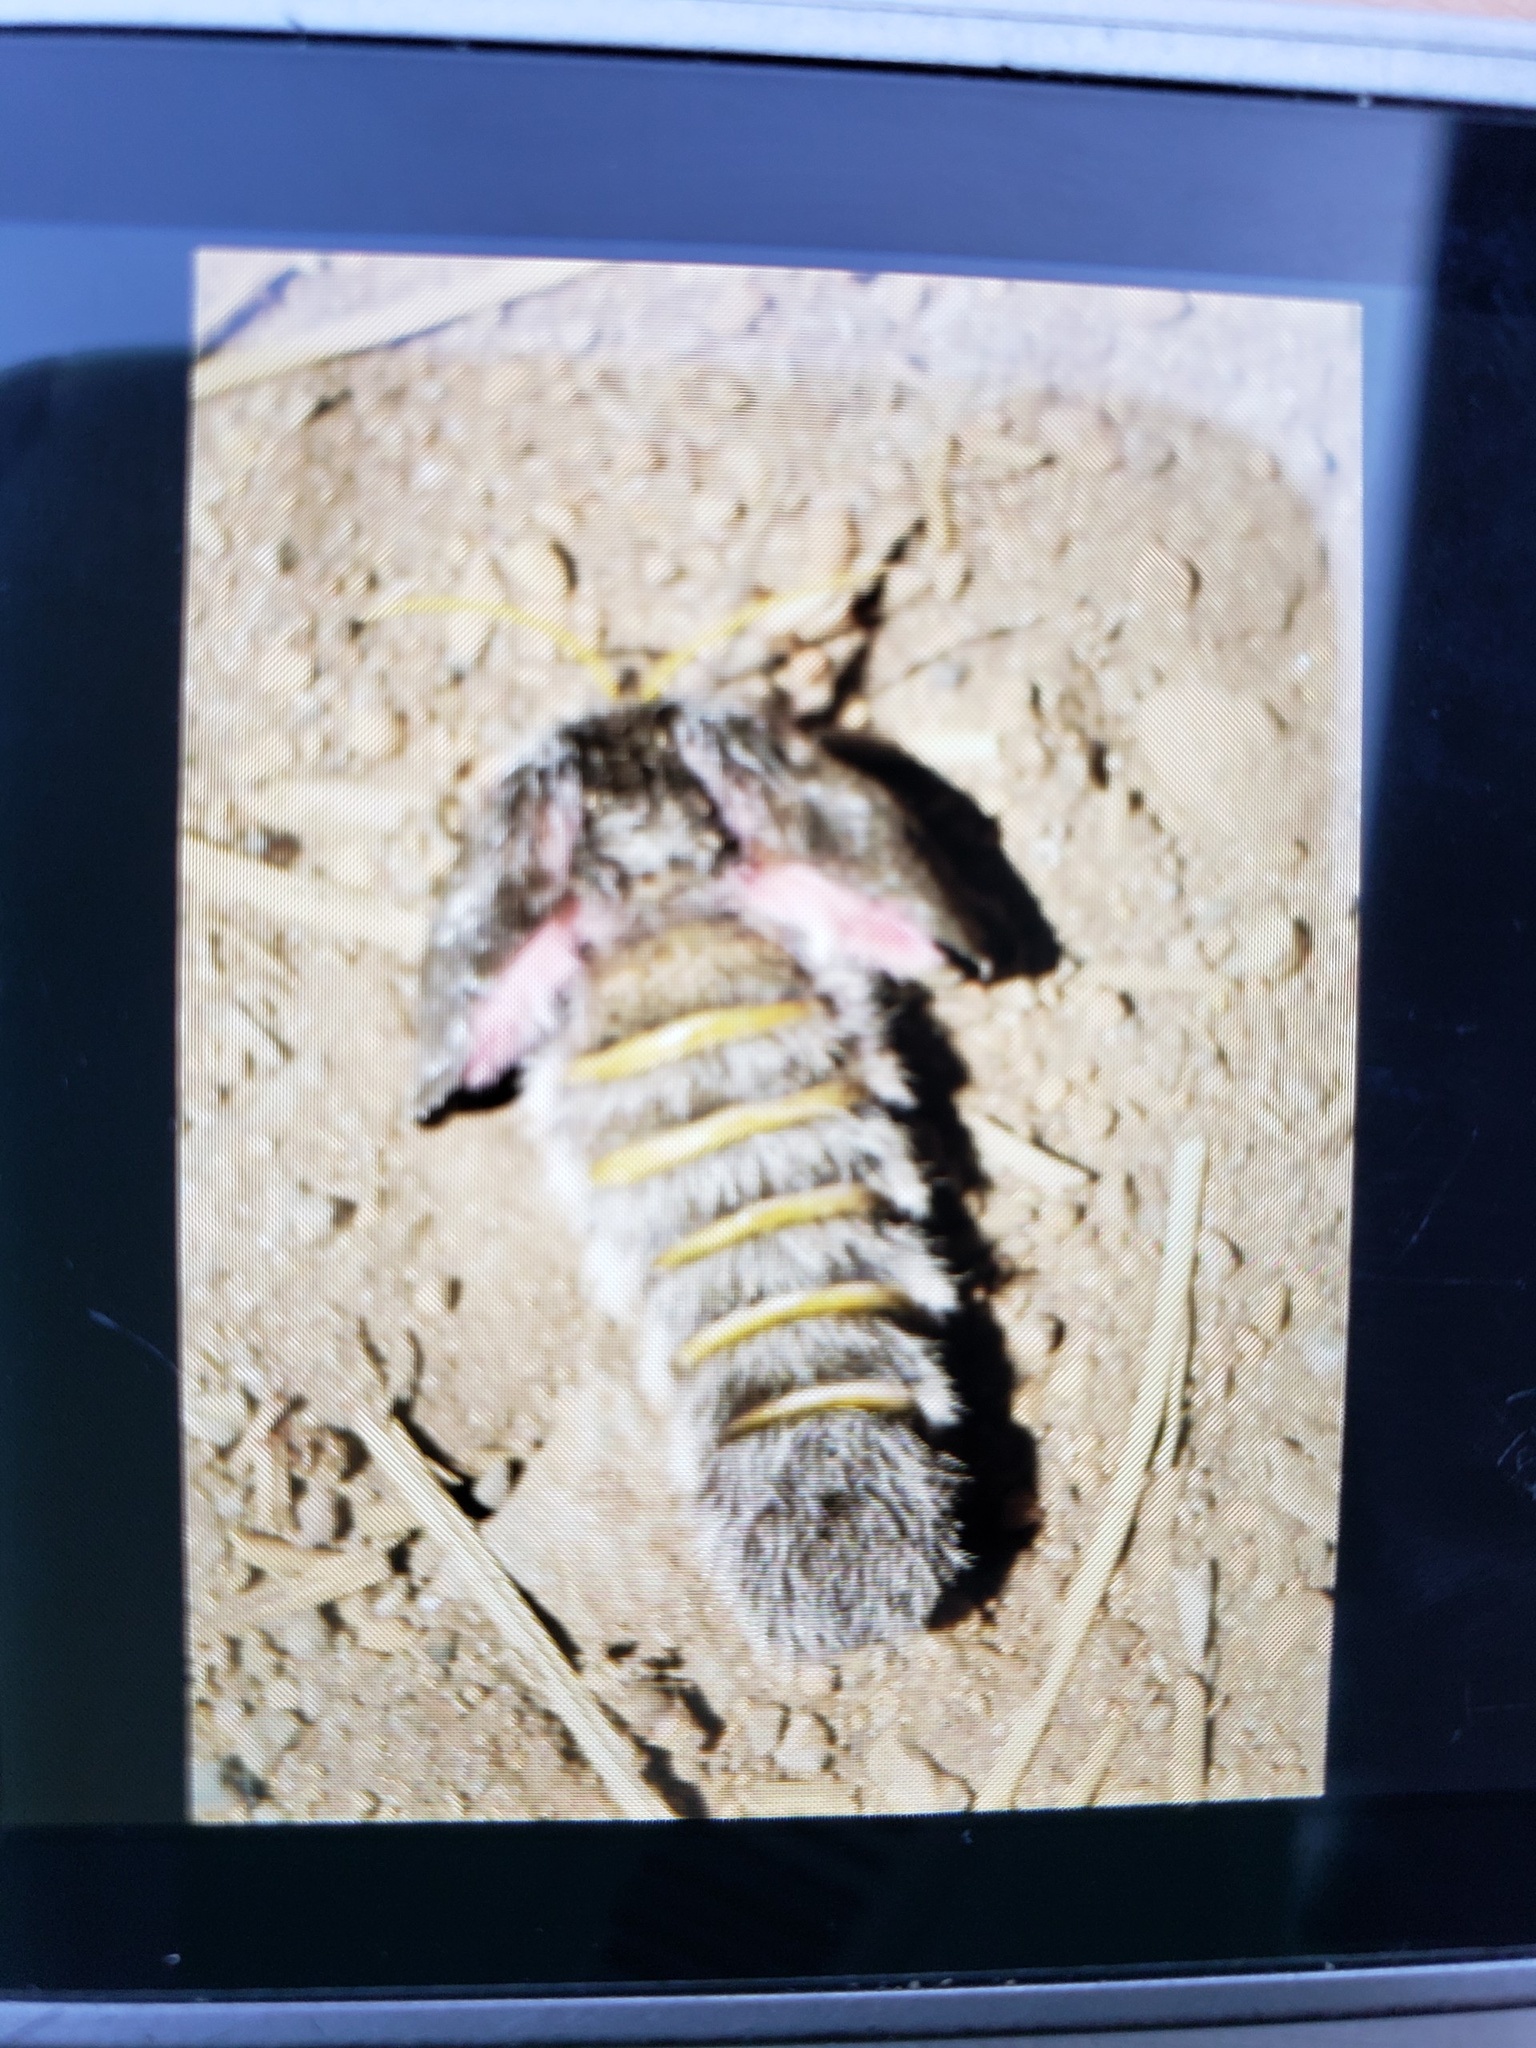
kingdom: Animalia
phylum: Arthropoda
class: Insecta
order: Lepidoptera
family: Saturniidae
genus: Coloradia
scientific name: Coloradia pandora
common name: Pandora pinemoth
